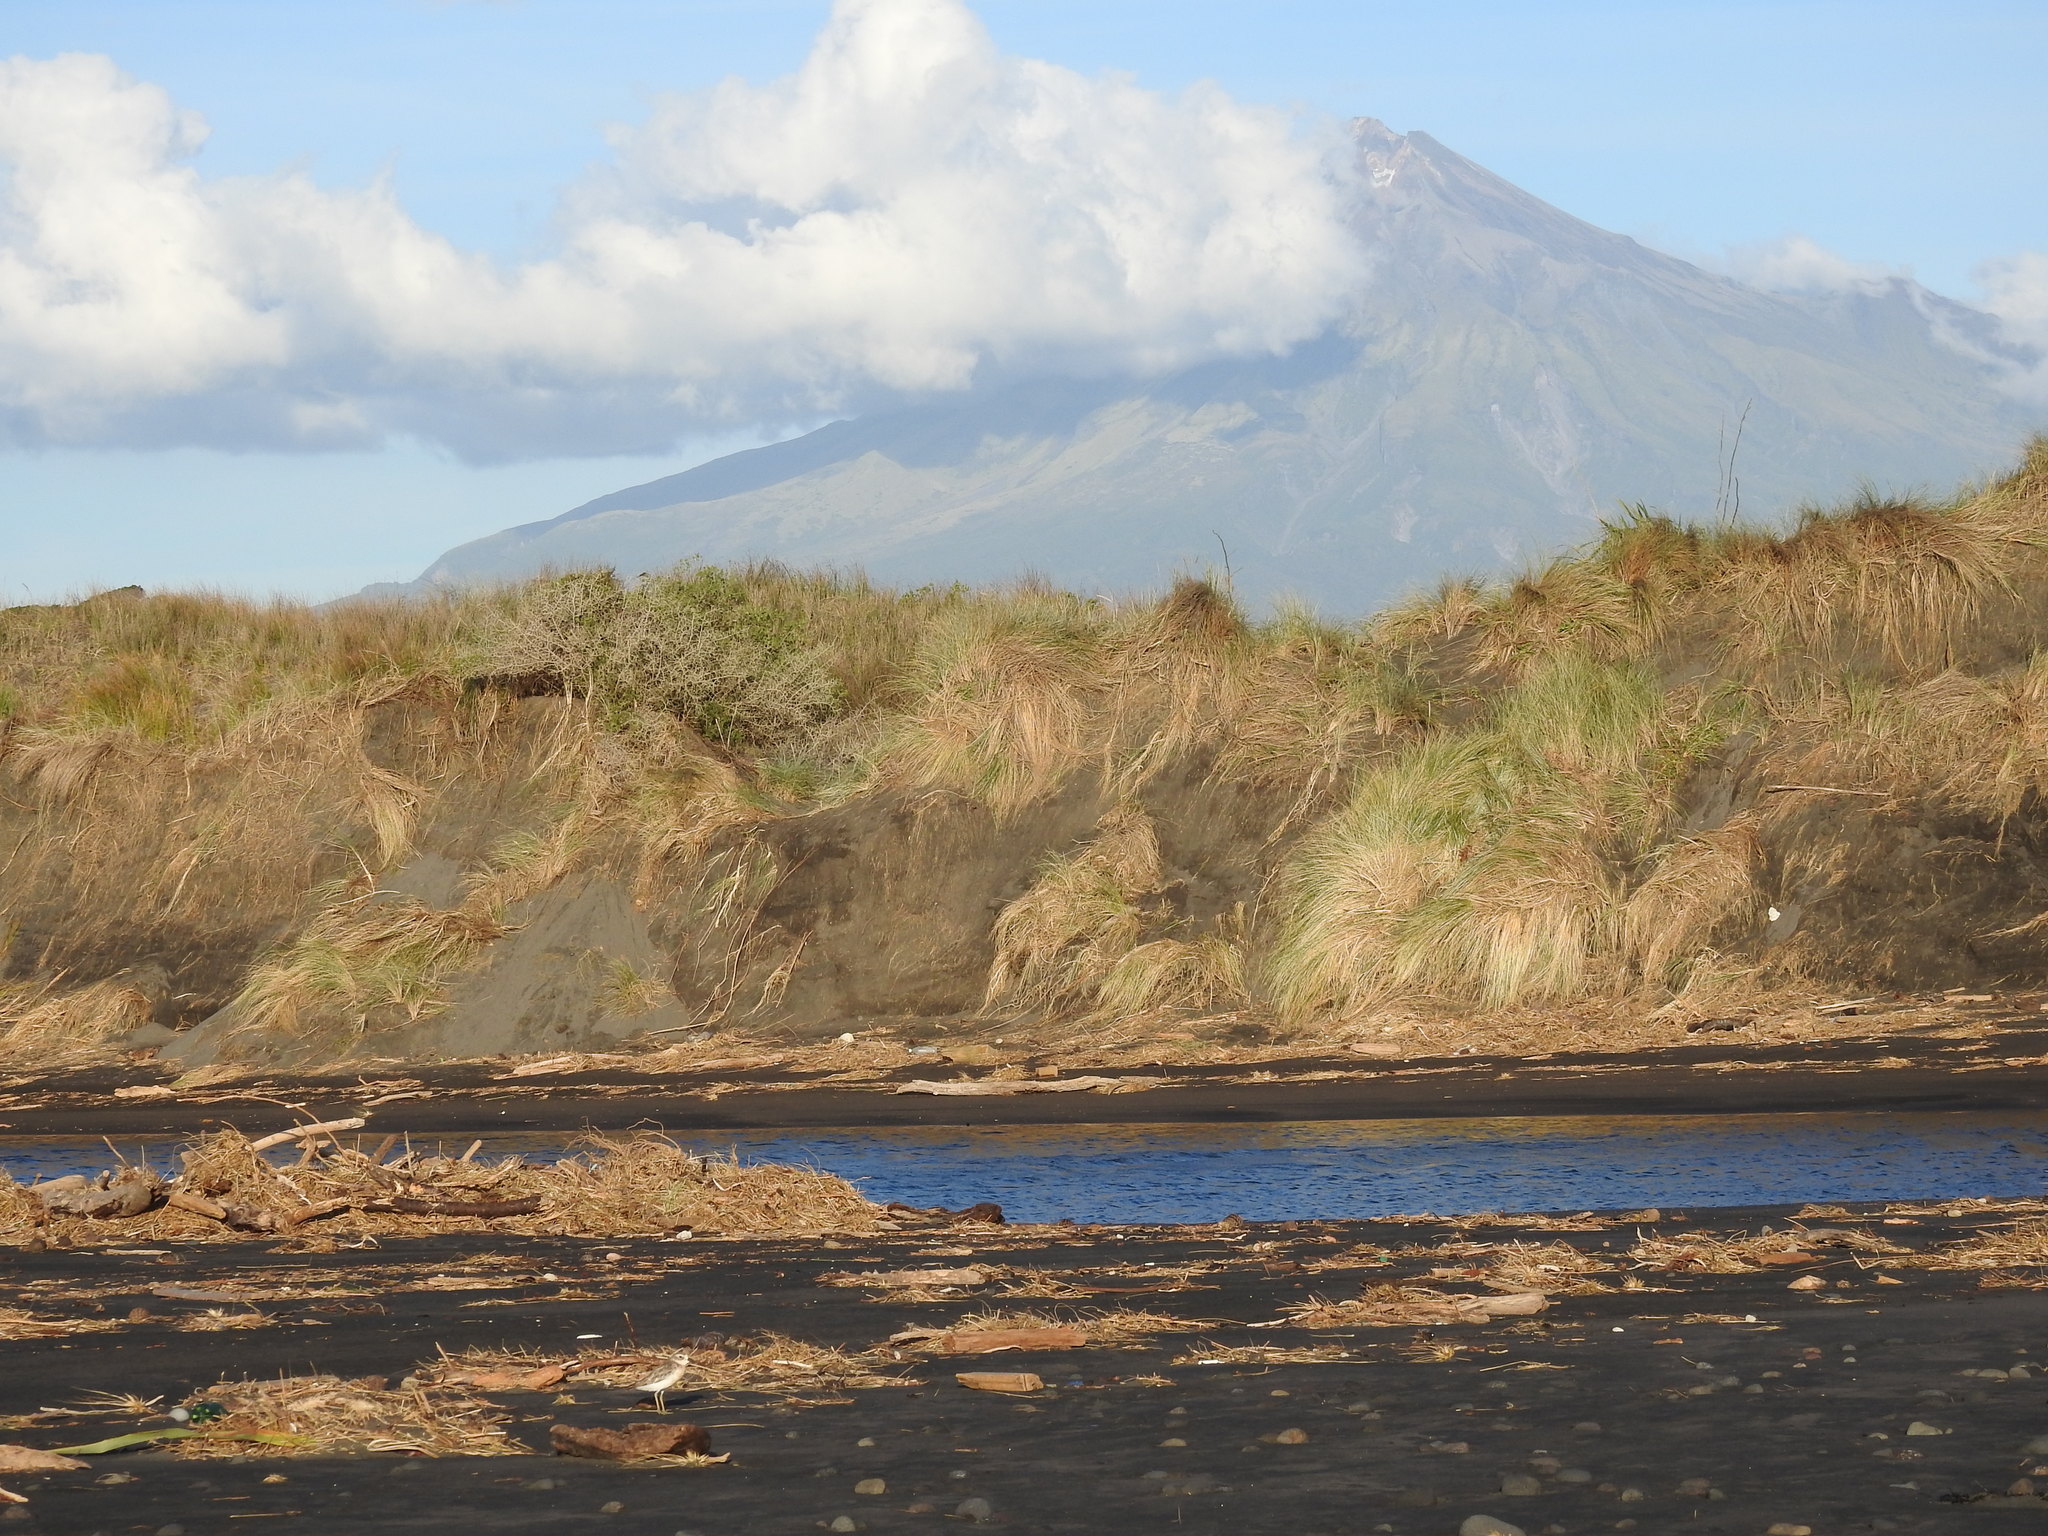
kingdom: Animalia
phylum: Chordata
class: Aves
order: Charadriiformes
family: Charadriidae
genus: Anarhynchus
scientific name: Anarhynchus
